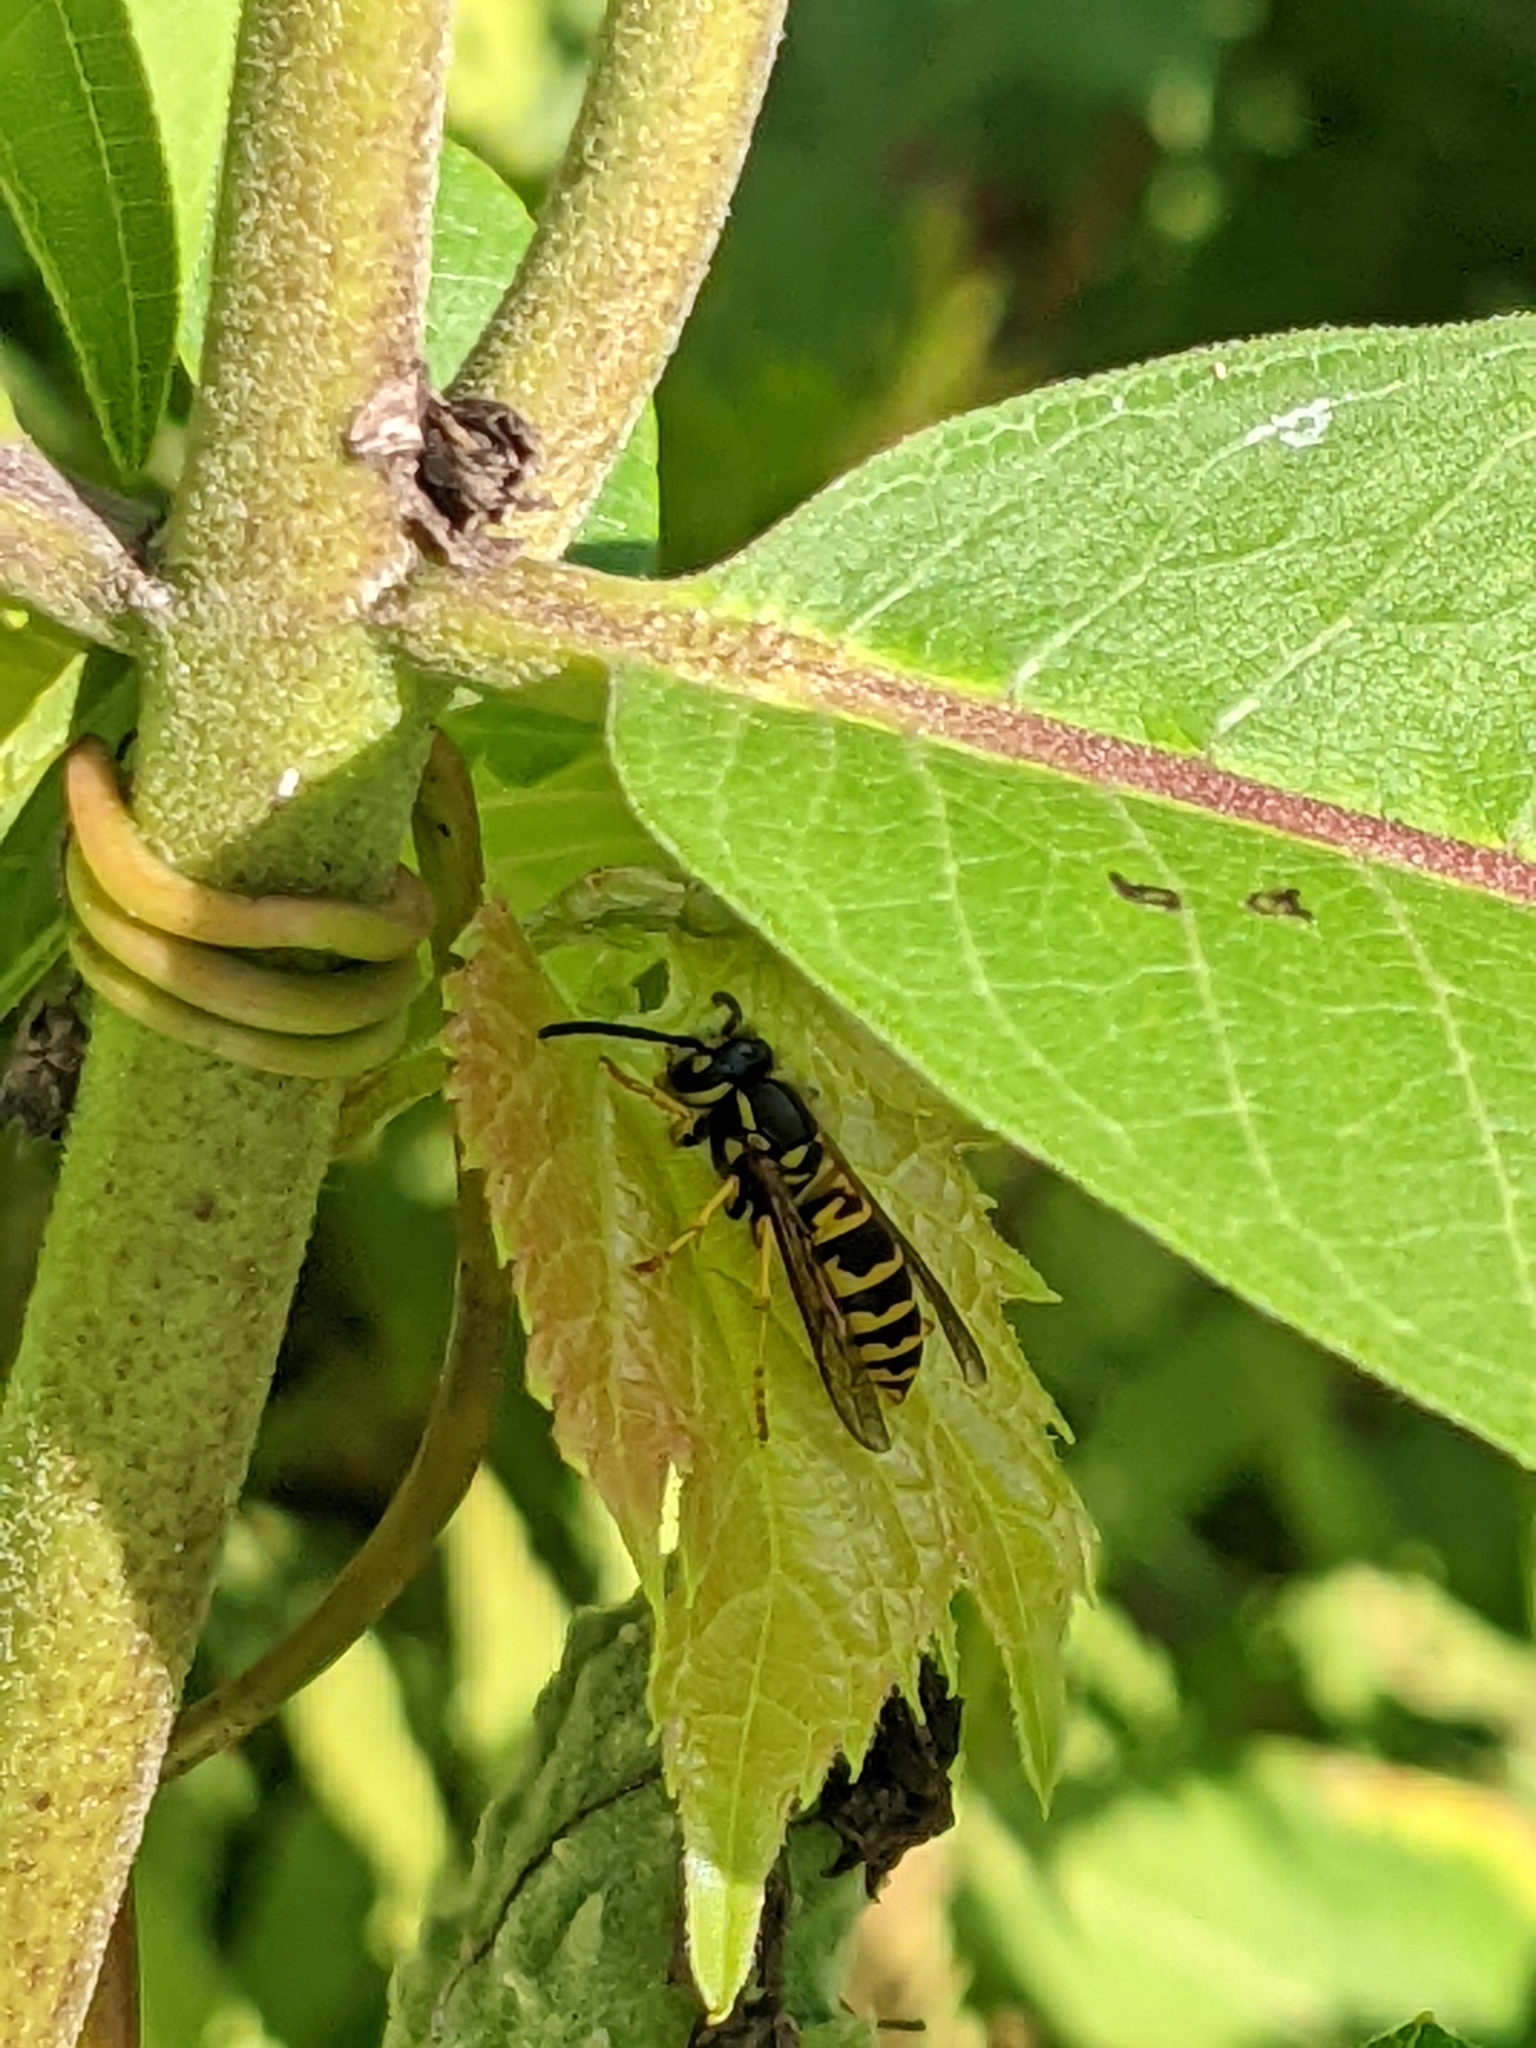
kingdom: Animalia
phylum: Arthropoda
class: Insecta
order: Hymenoptera
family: Vespidae
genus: Vespula
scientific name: Vespula maculifrons
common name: Eastern yellowjacket
